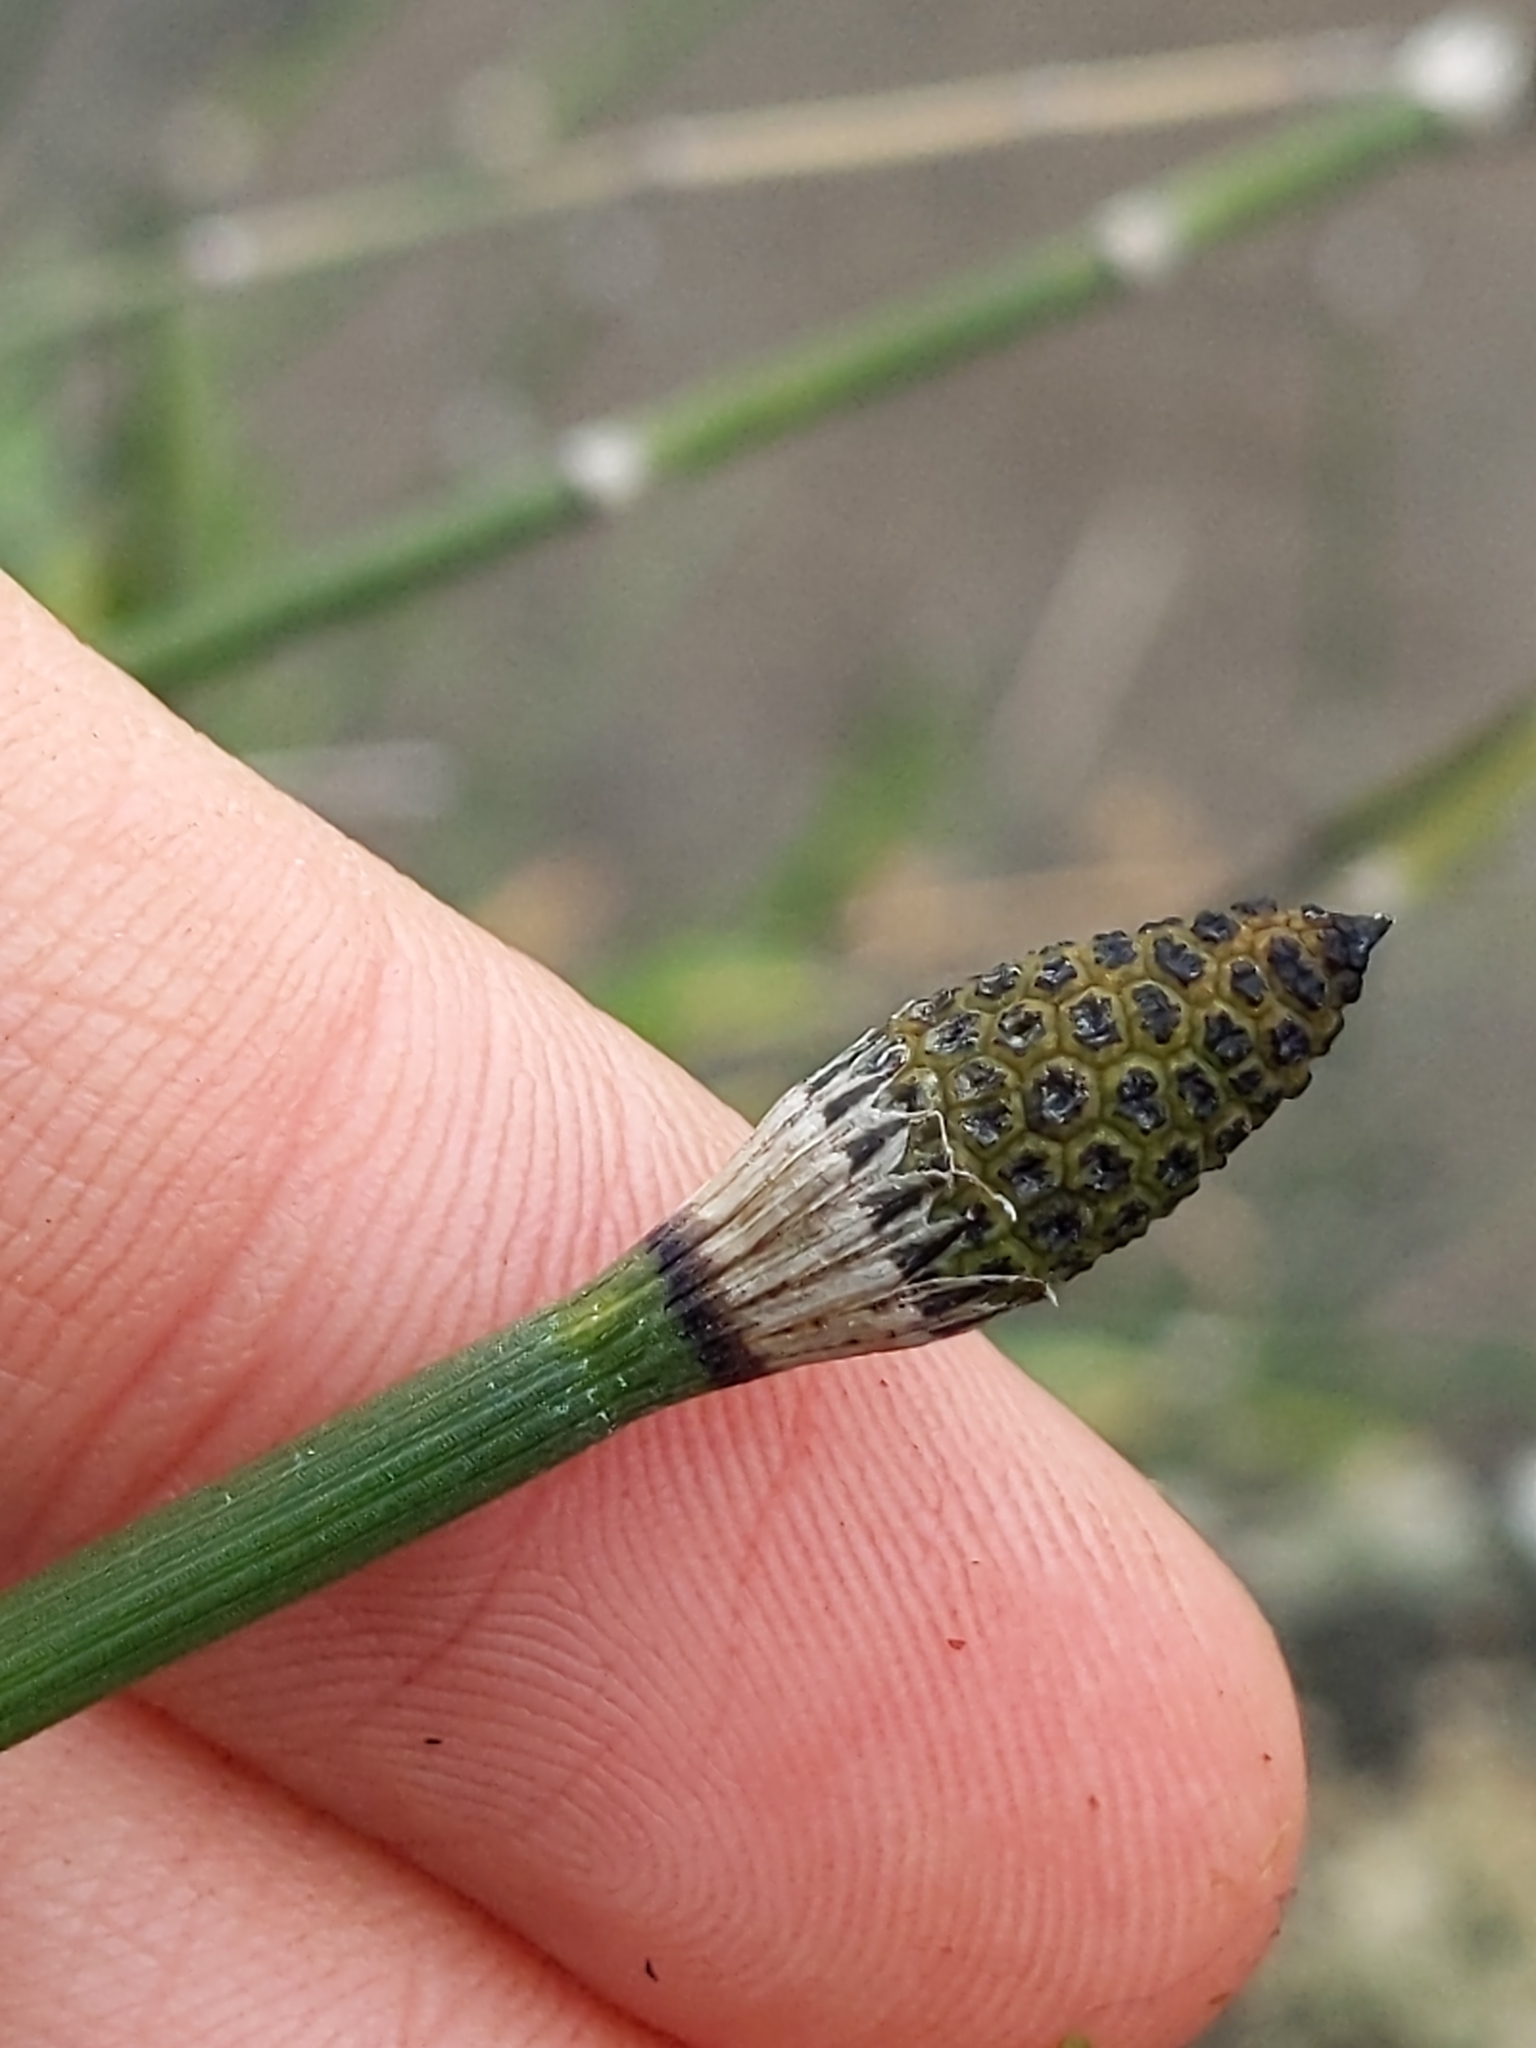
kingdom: Plantae
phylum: Tracheophyta
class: Polypodiopsida
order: Equisetales
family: Equisetaceae
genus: Equisetum
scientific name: Equisetum hyemale
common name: Rough horsetail
